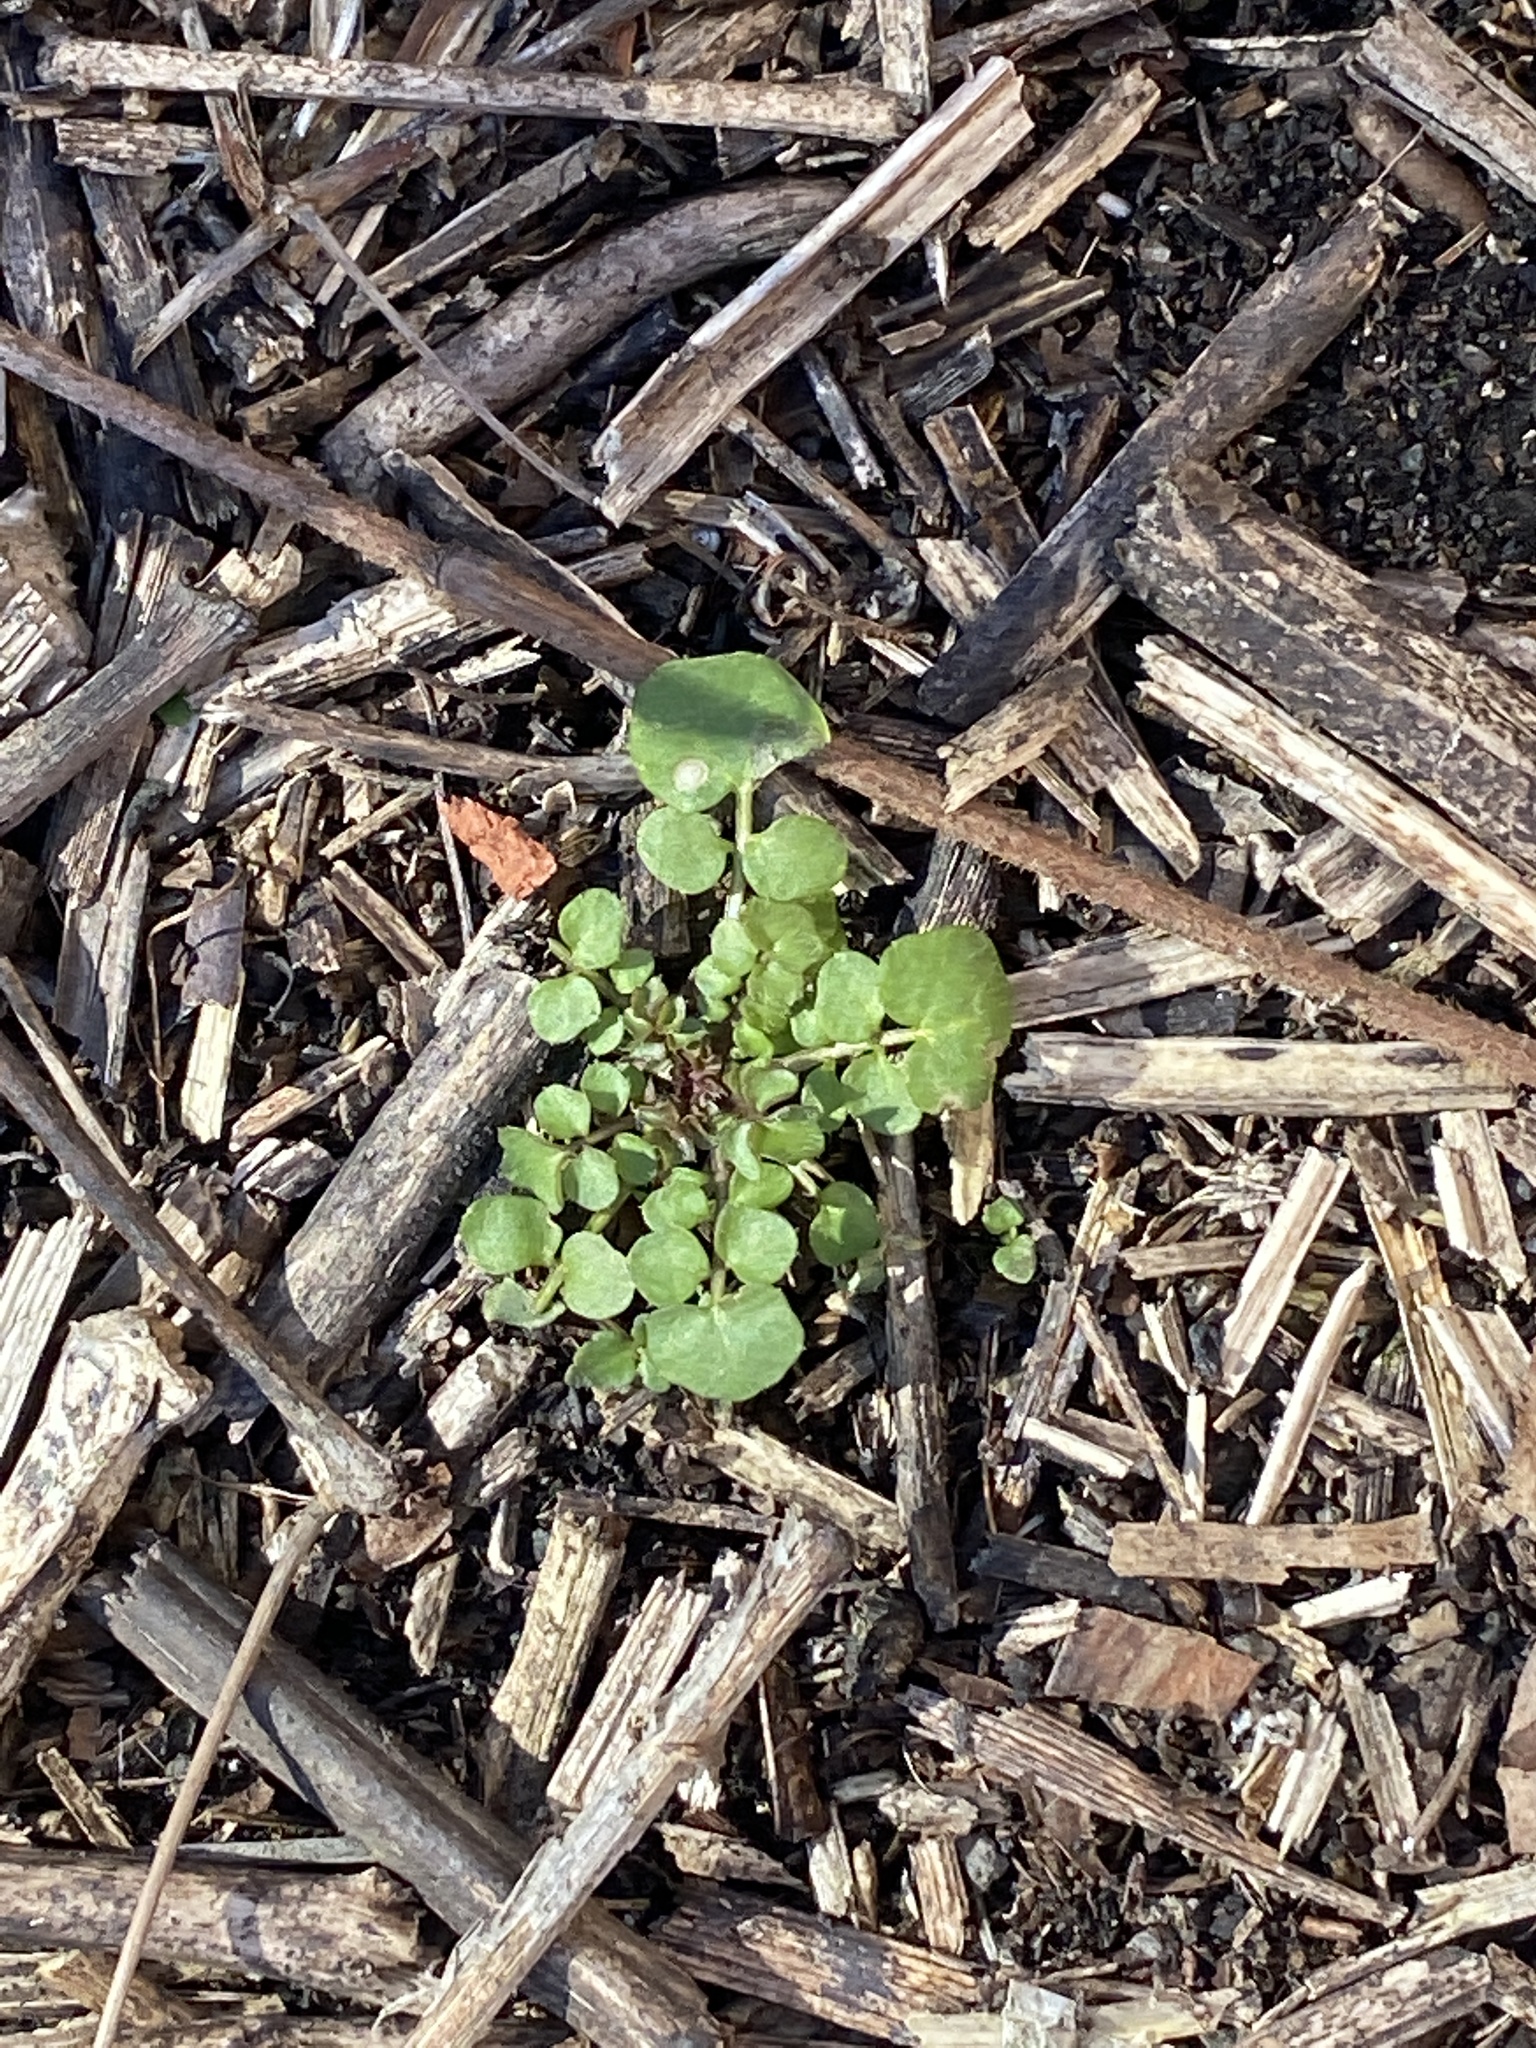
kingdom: Plantae
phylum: Tracheophyta
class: Magnoliopsida
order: Brassicales
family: Brassicaceae
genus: Cardamine
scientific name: Cardamine hirsuta
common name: Hairy bittercress
